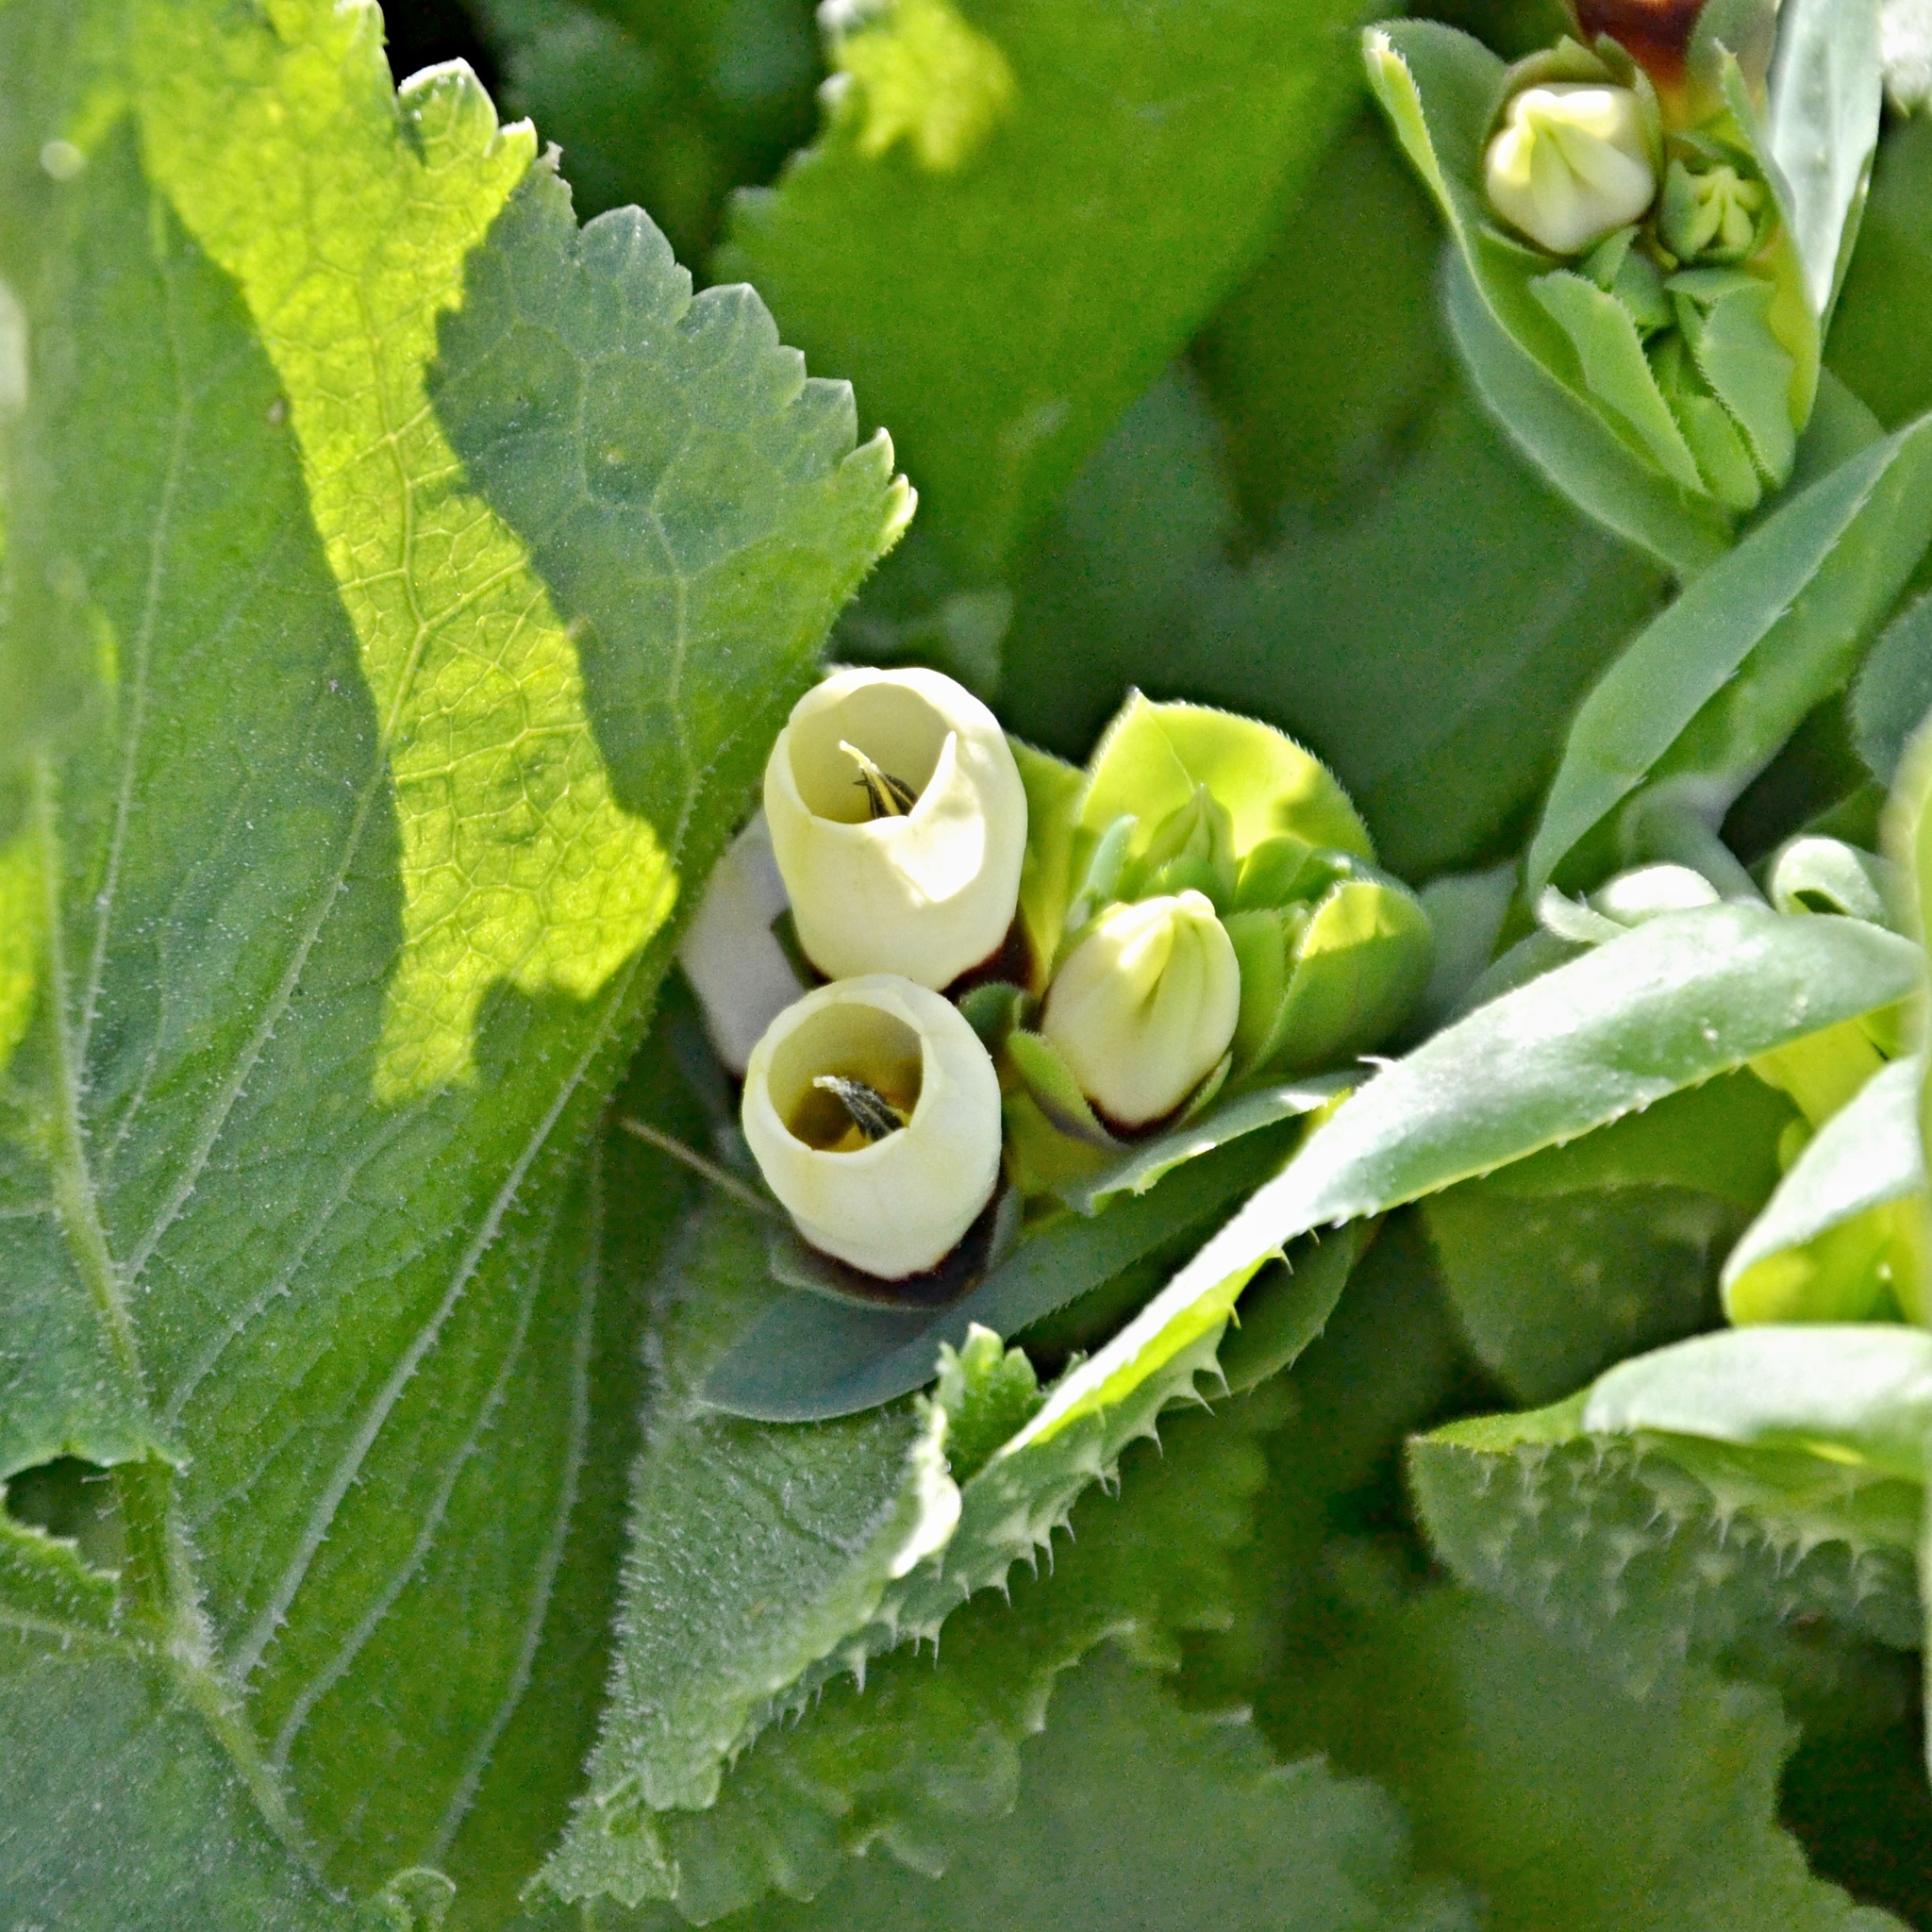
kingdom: Plantae
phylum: Tracheophyta
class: Magnoliopsida
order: Boraginales
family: Boraginaceae
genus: Cerinthe
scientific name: Cerinthe major
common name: Greater honeywort
